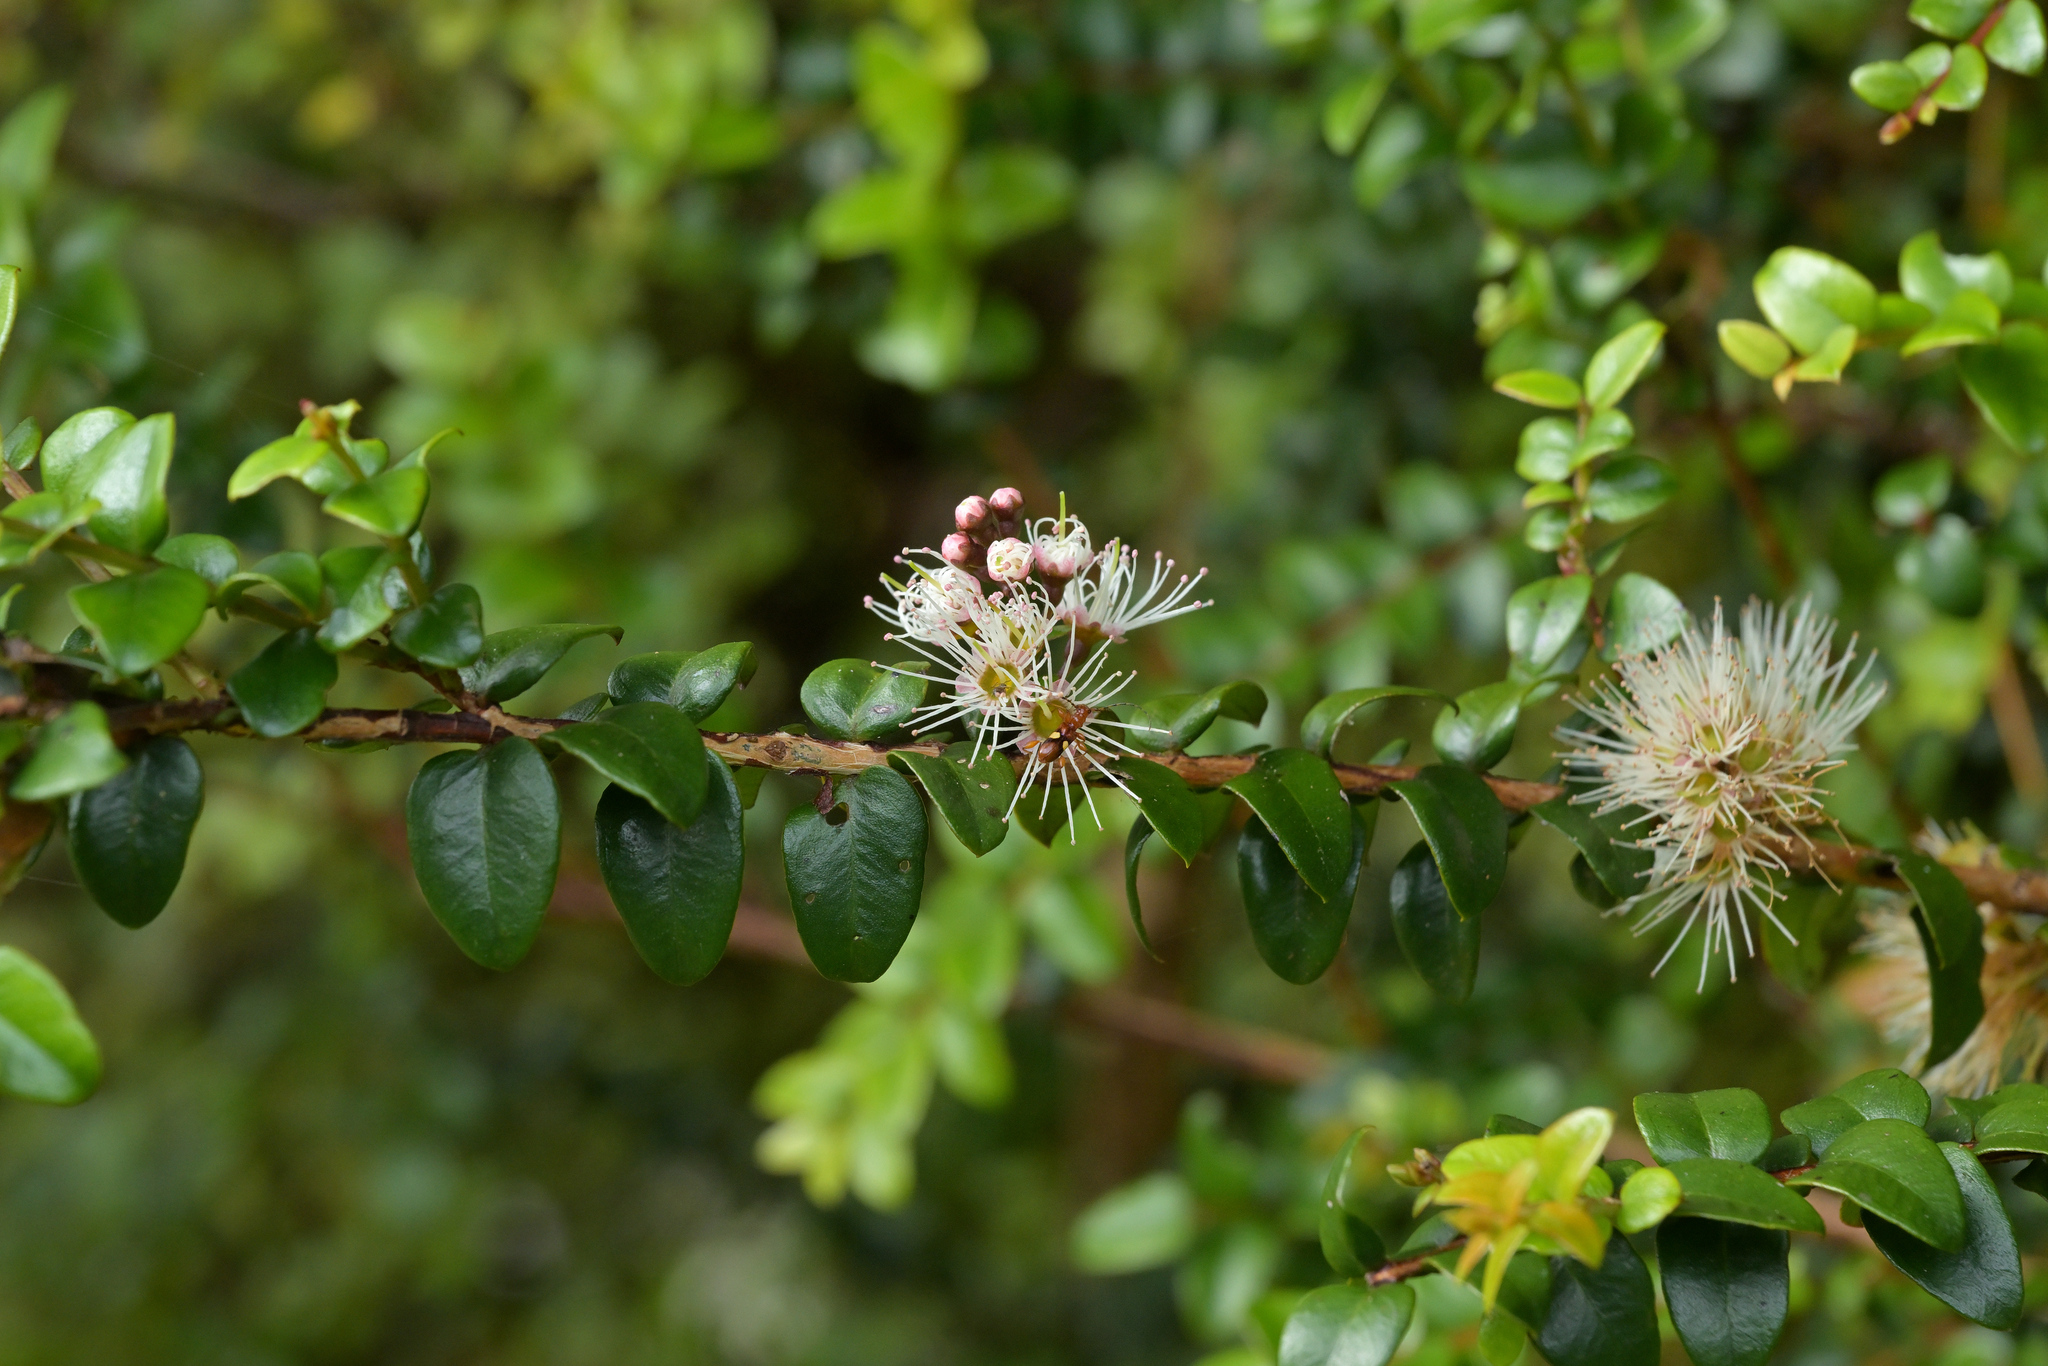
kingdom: Plantae
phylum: Tracheophyta
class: Magnoliopsida
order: Myrtales
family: Myrtaceae
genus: Metrosideros
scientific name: Metrosideros diffusa
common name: Small ratavine
